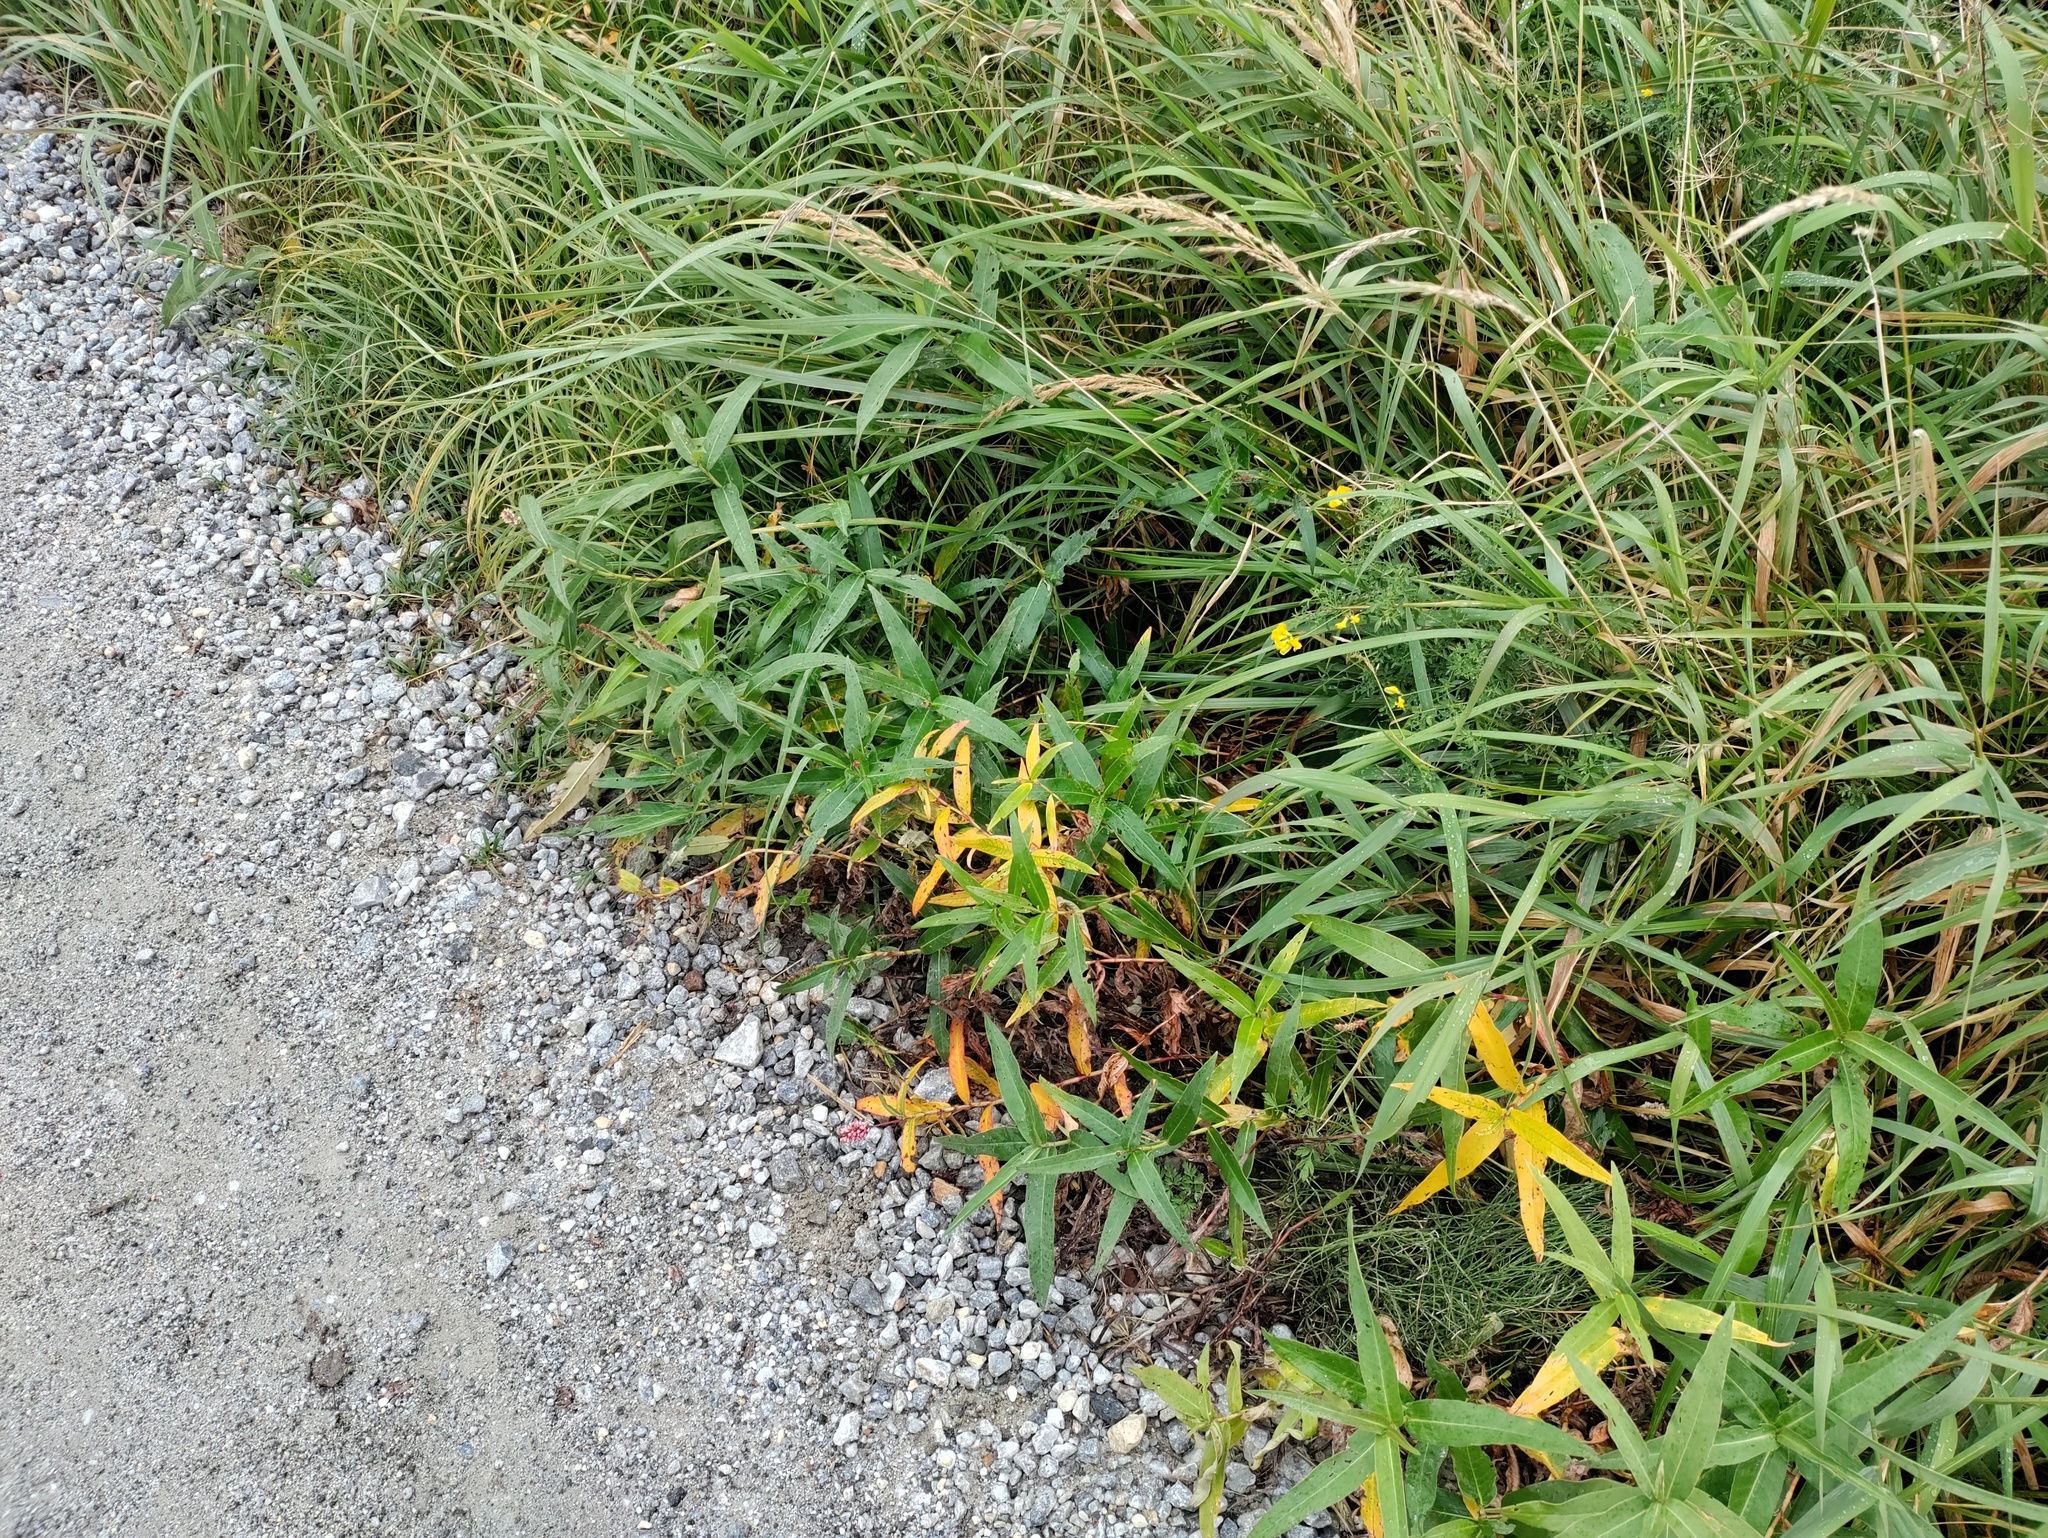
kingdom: Plantae
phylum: Tracheophyta
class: Magnoliopsida
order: Caryophyllales
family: Polygonaceae
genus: Persicaria
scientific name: Persicaria amphibia
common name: Amphibious bistort
